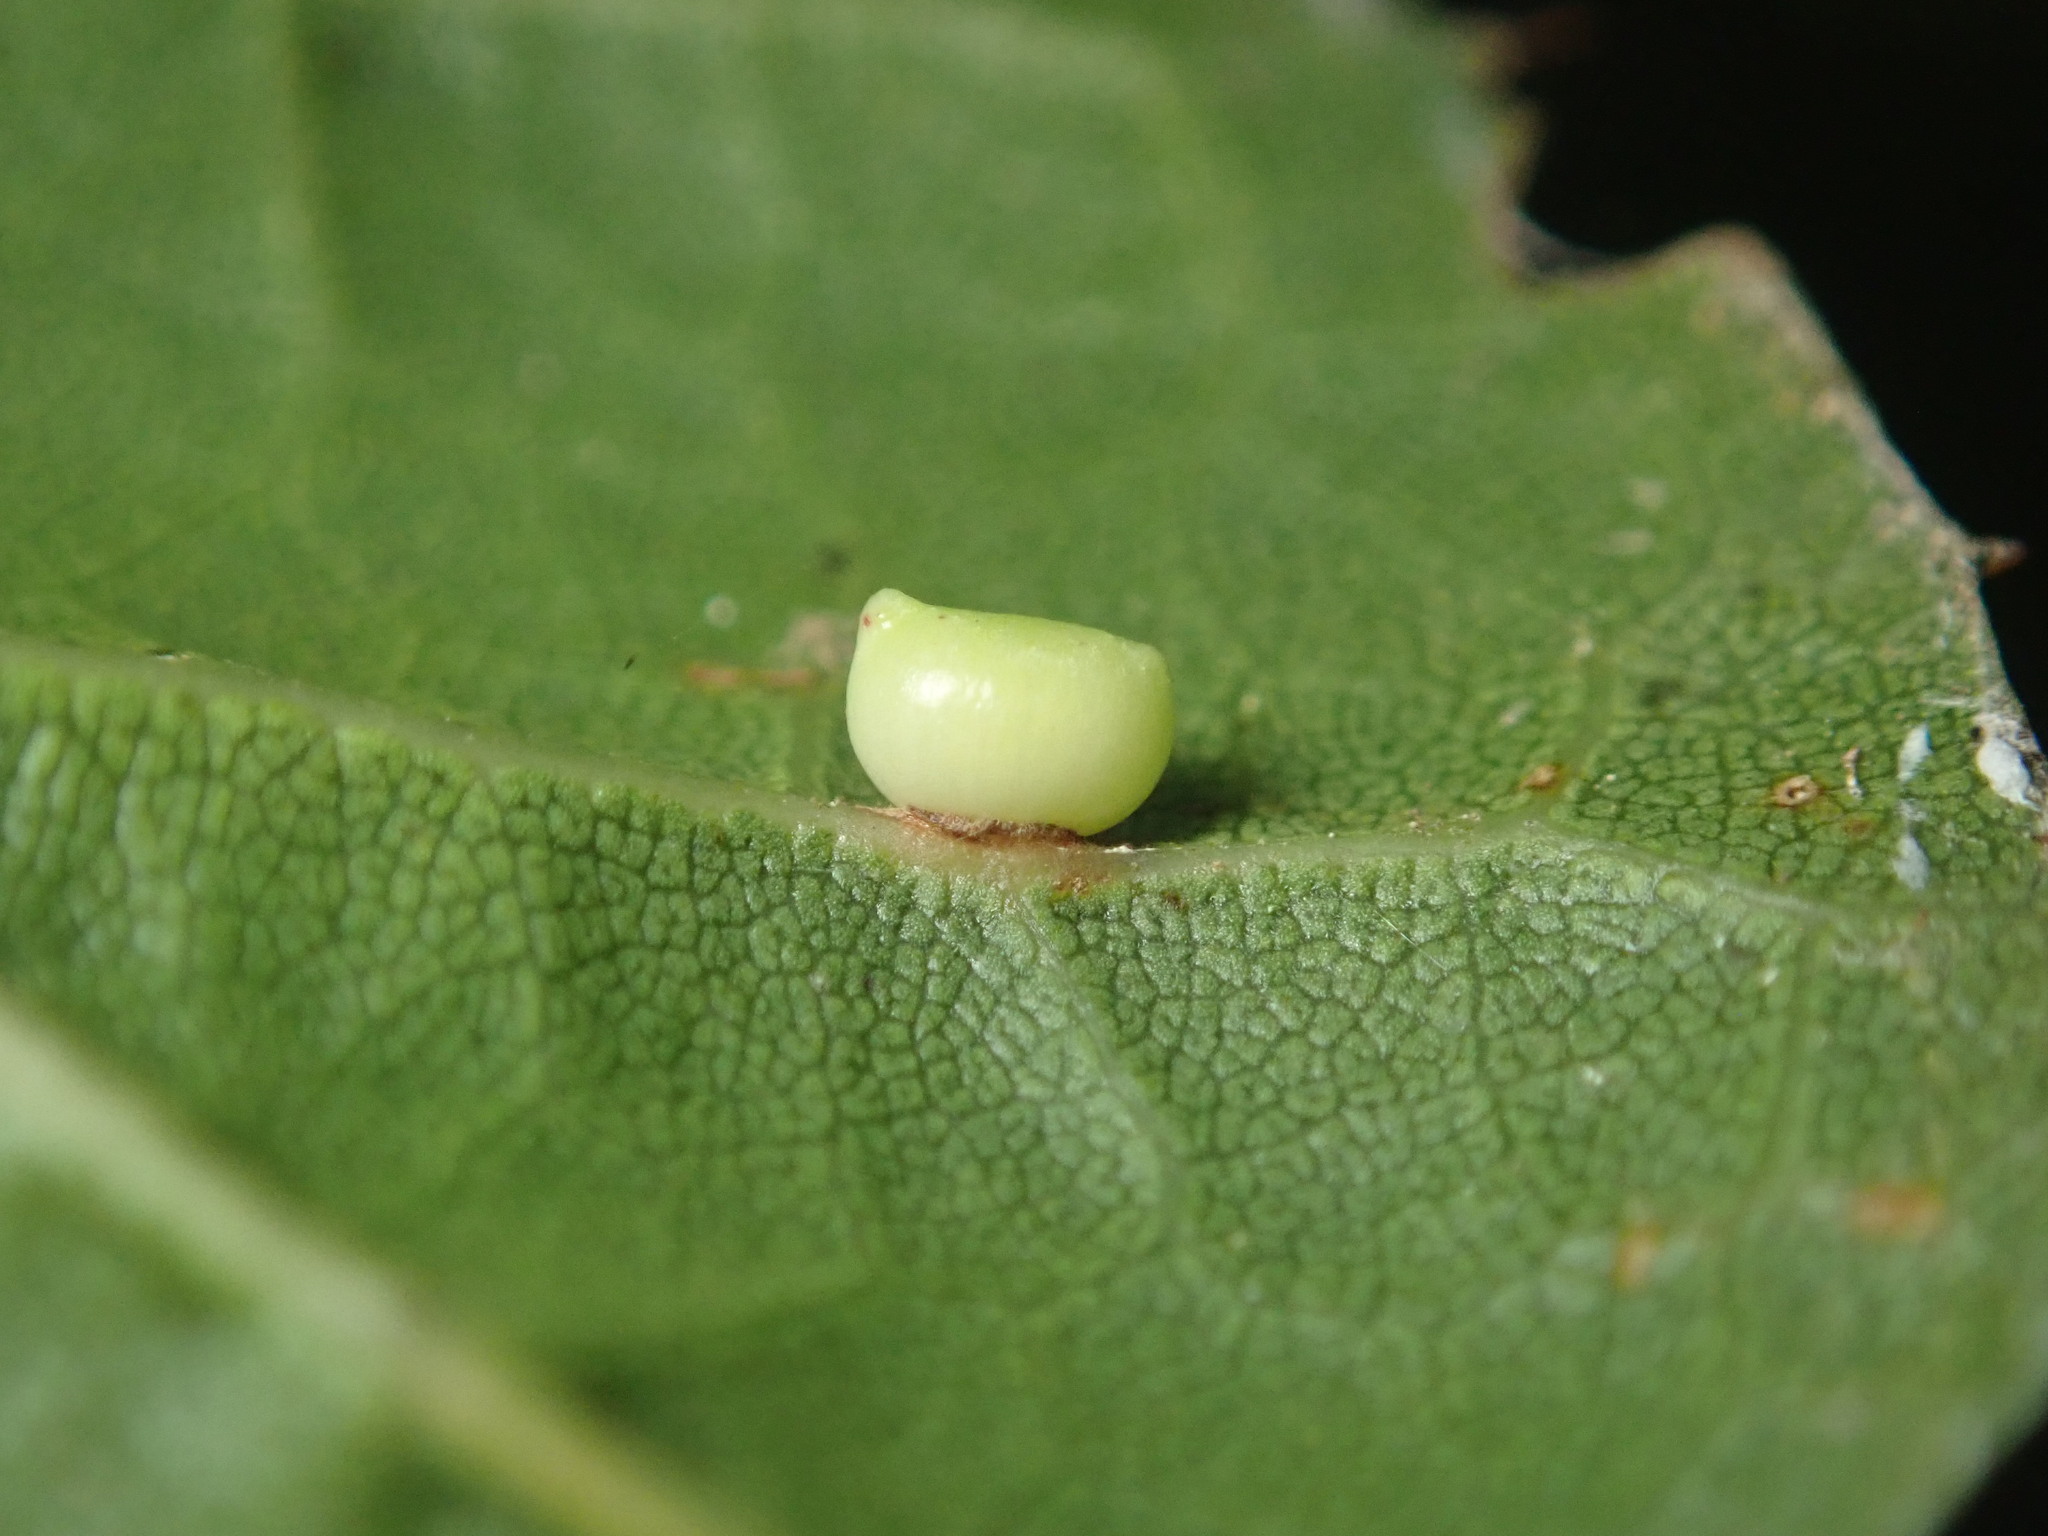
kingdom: Animalia
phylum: Arthropoda
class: Insecta
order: Hymenoptera
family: Cynipidae
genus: Dryocosmus
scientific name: Dryocosmus
